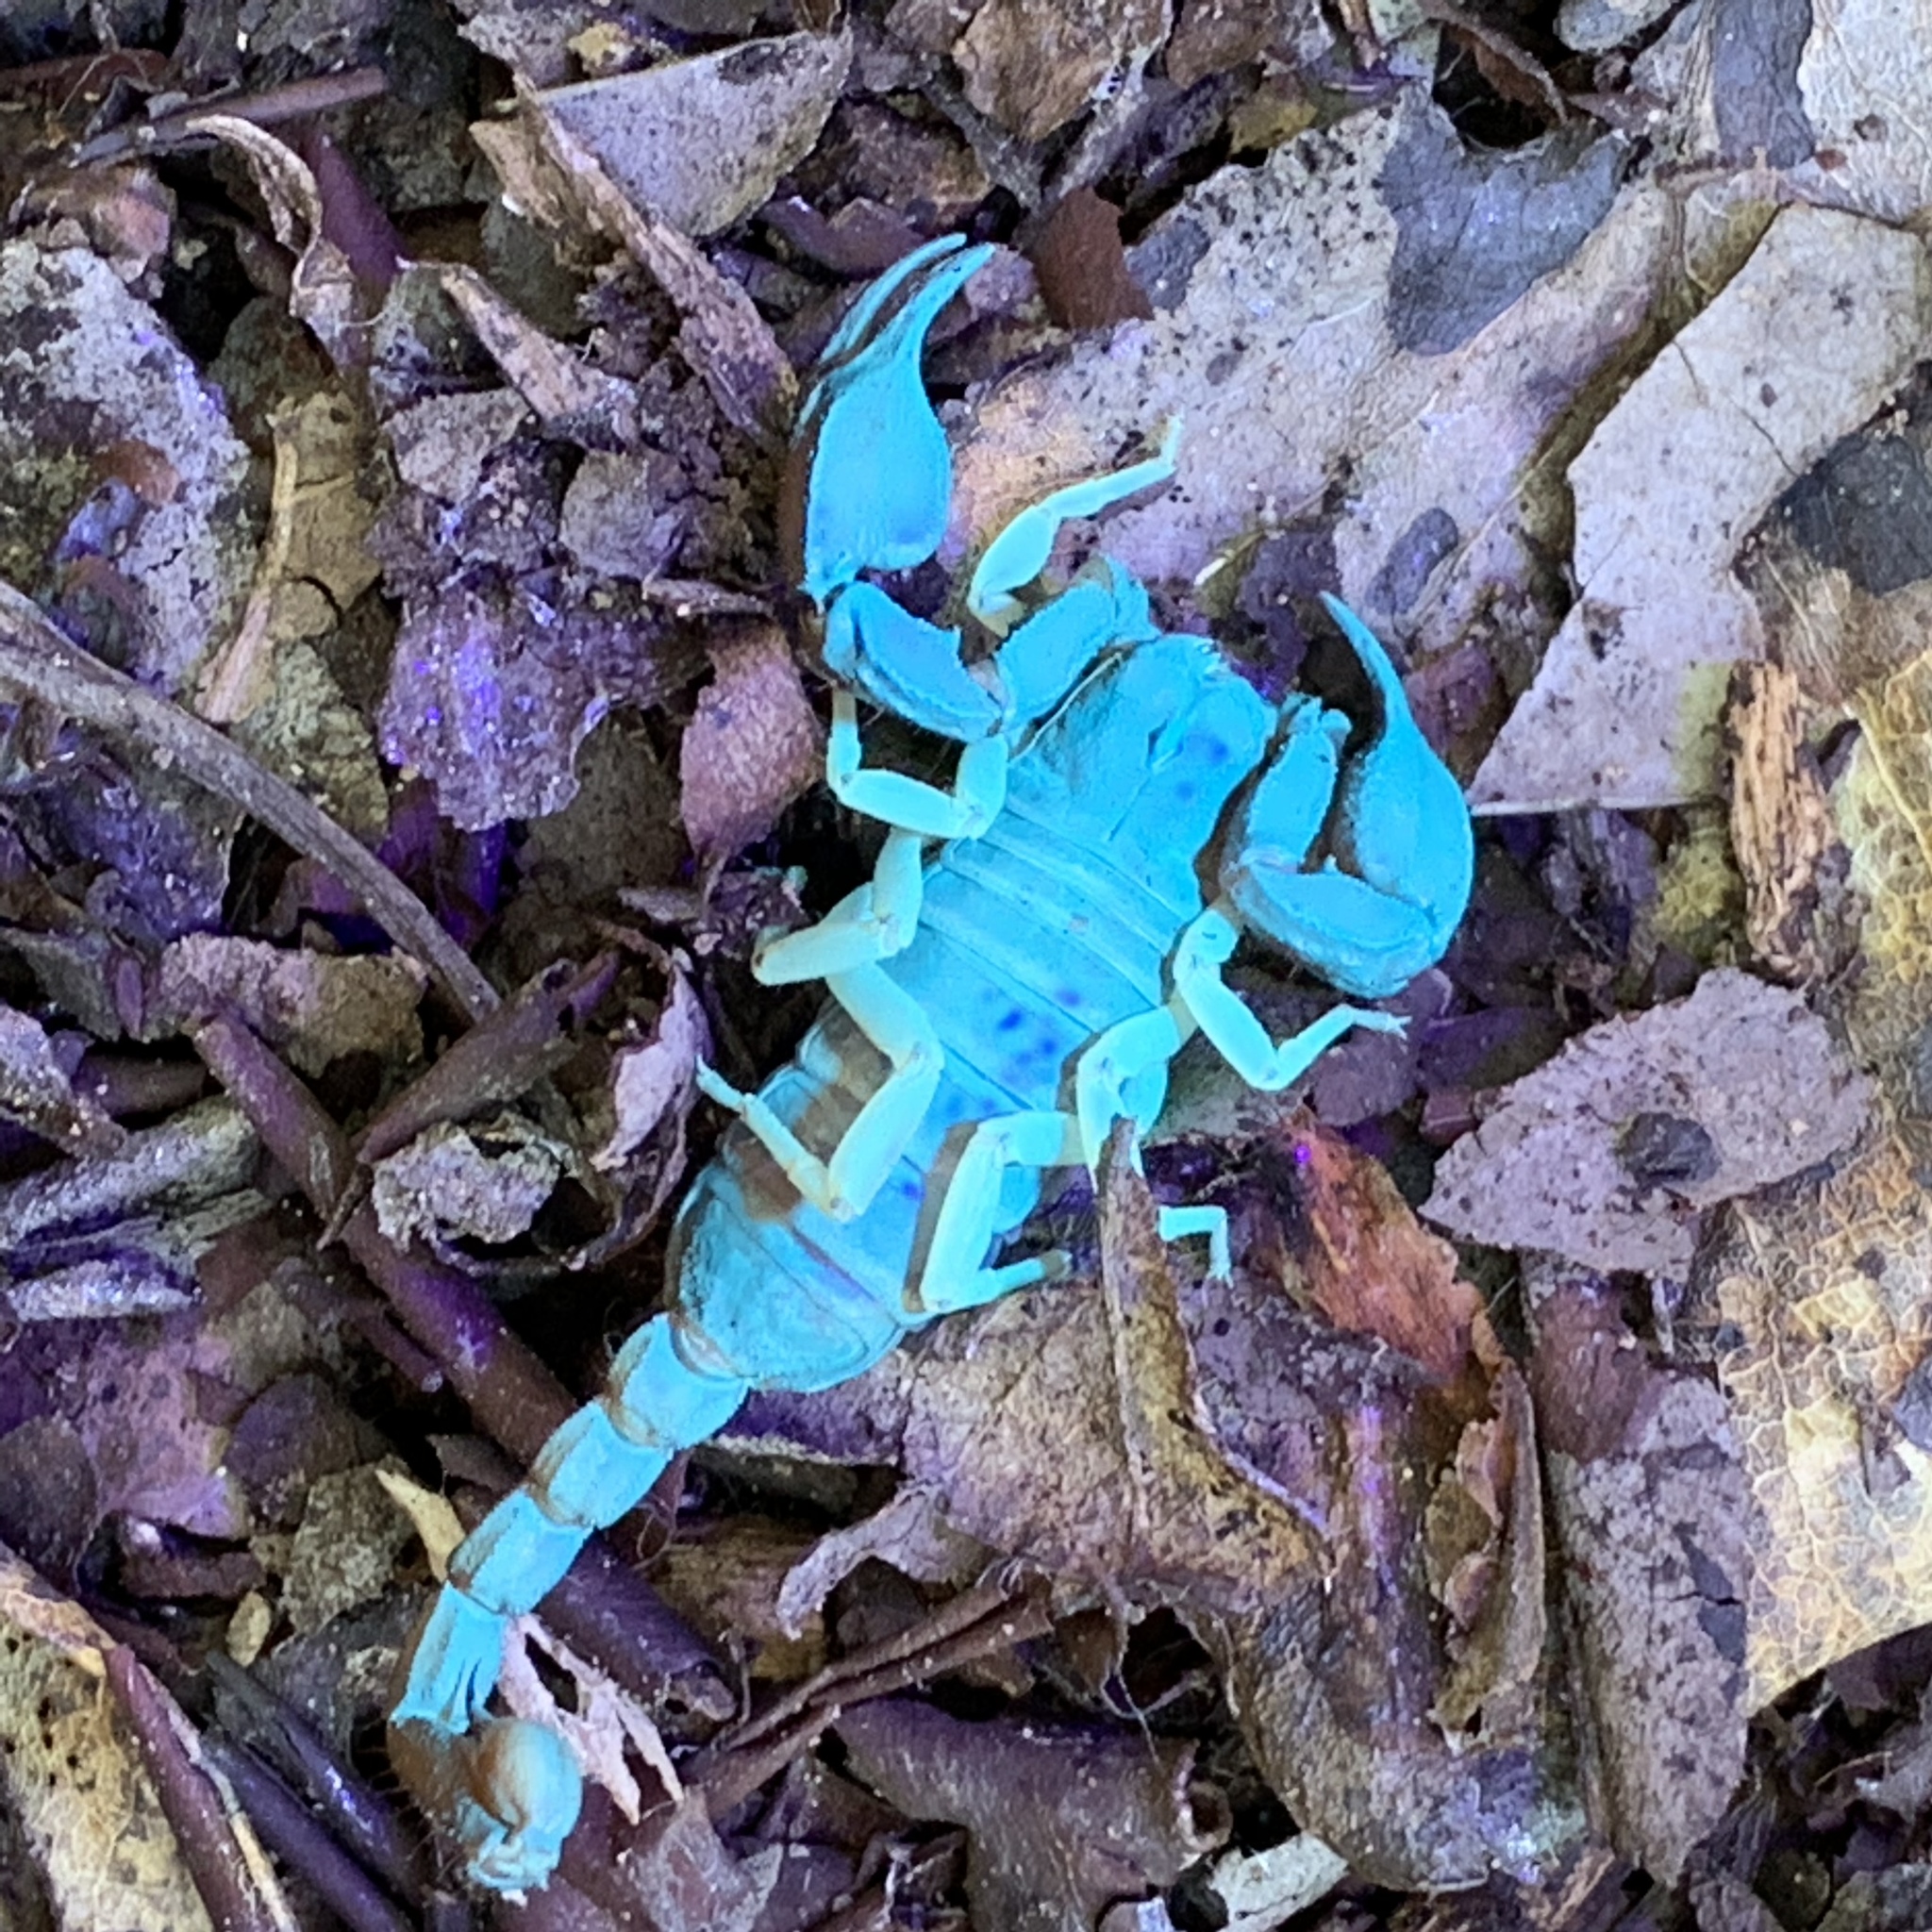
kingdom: Animalia
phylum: Arthropoda
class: Arachnida
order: Scorpiones
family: Chactidae
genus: Uroctonus
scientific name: Uroctonus mordax
